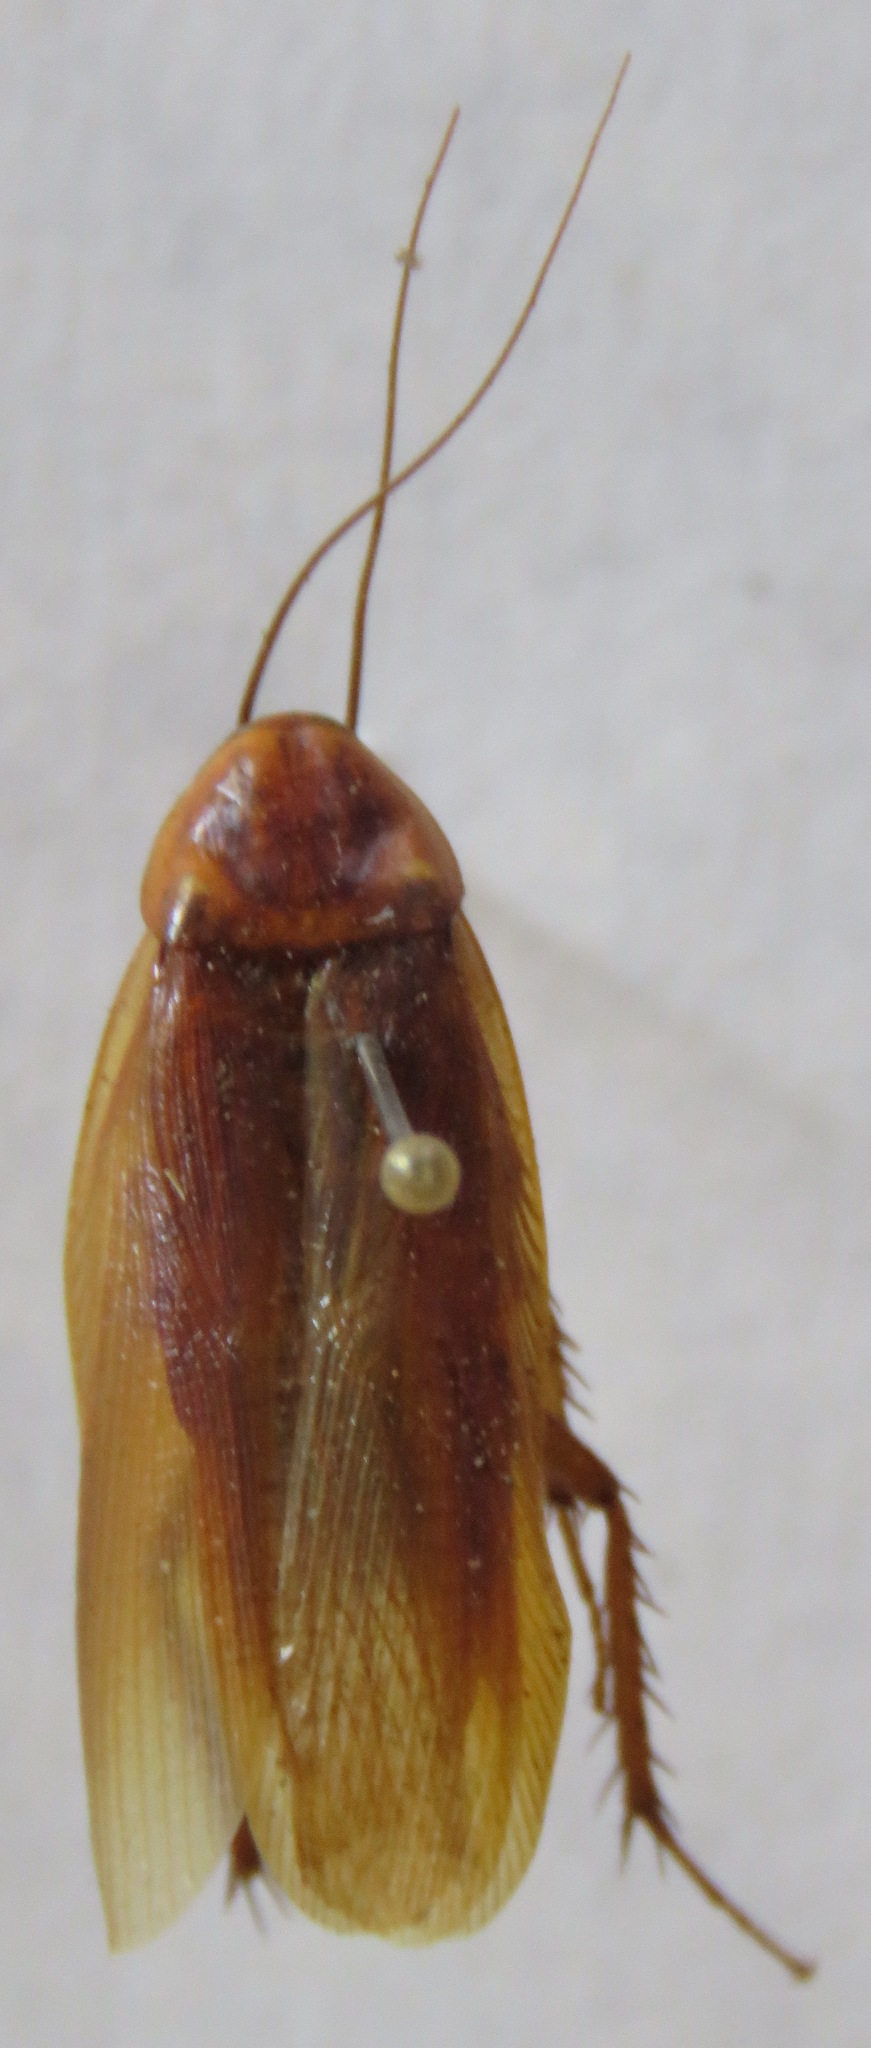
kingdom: Animalia
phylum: Arthropoda
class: Insecta
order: Blattodea
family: Ectobiidae
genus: Ischnoptera
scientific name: Ischnoptera rufa
